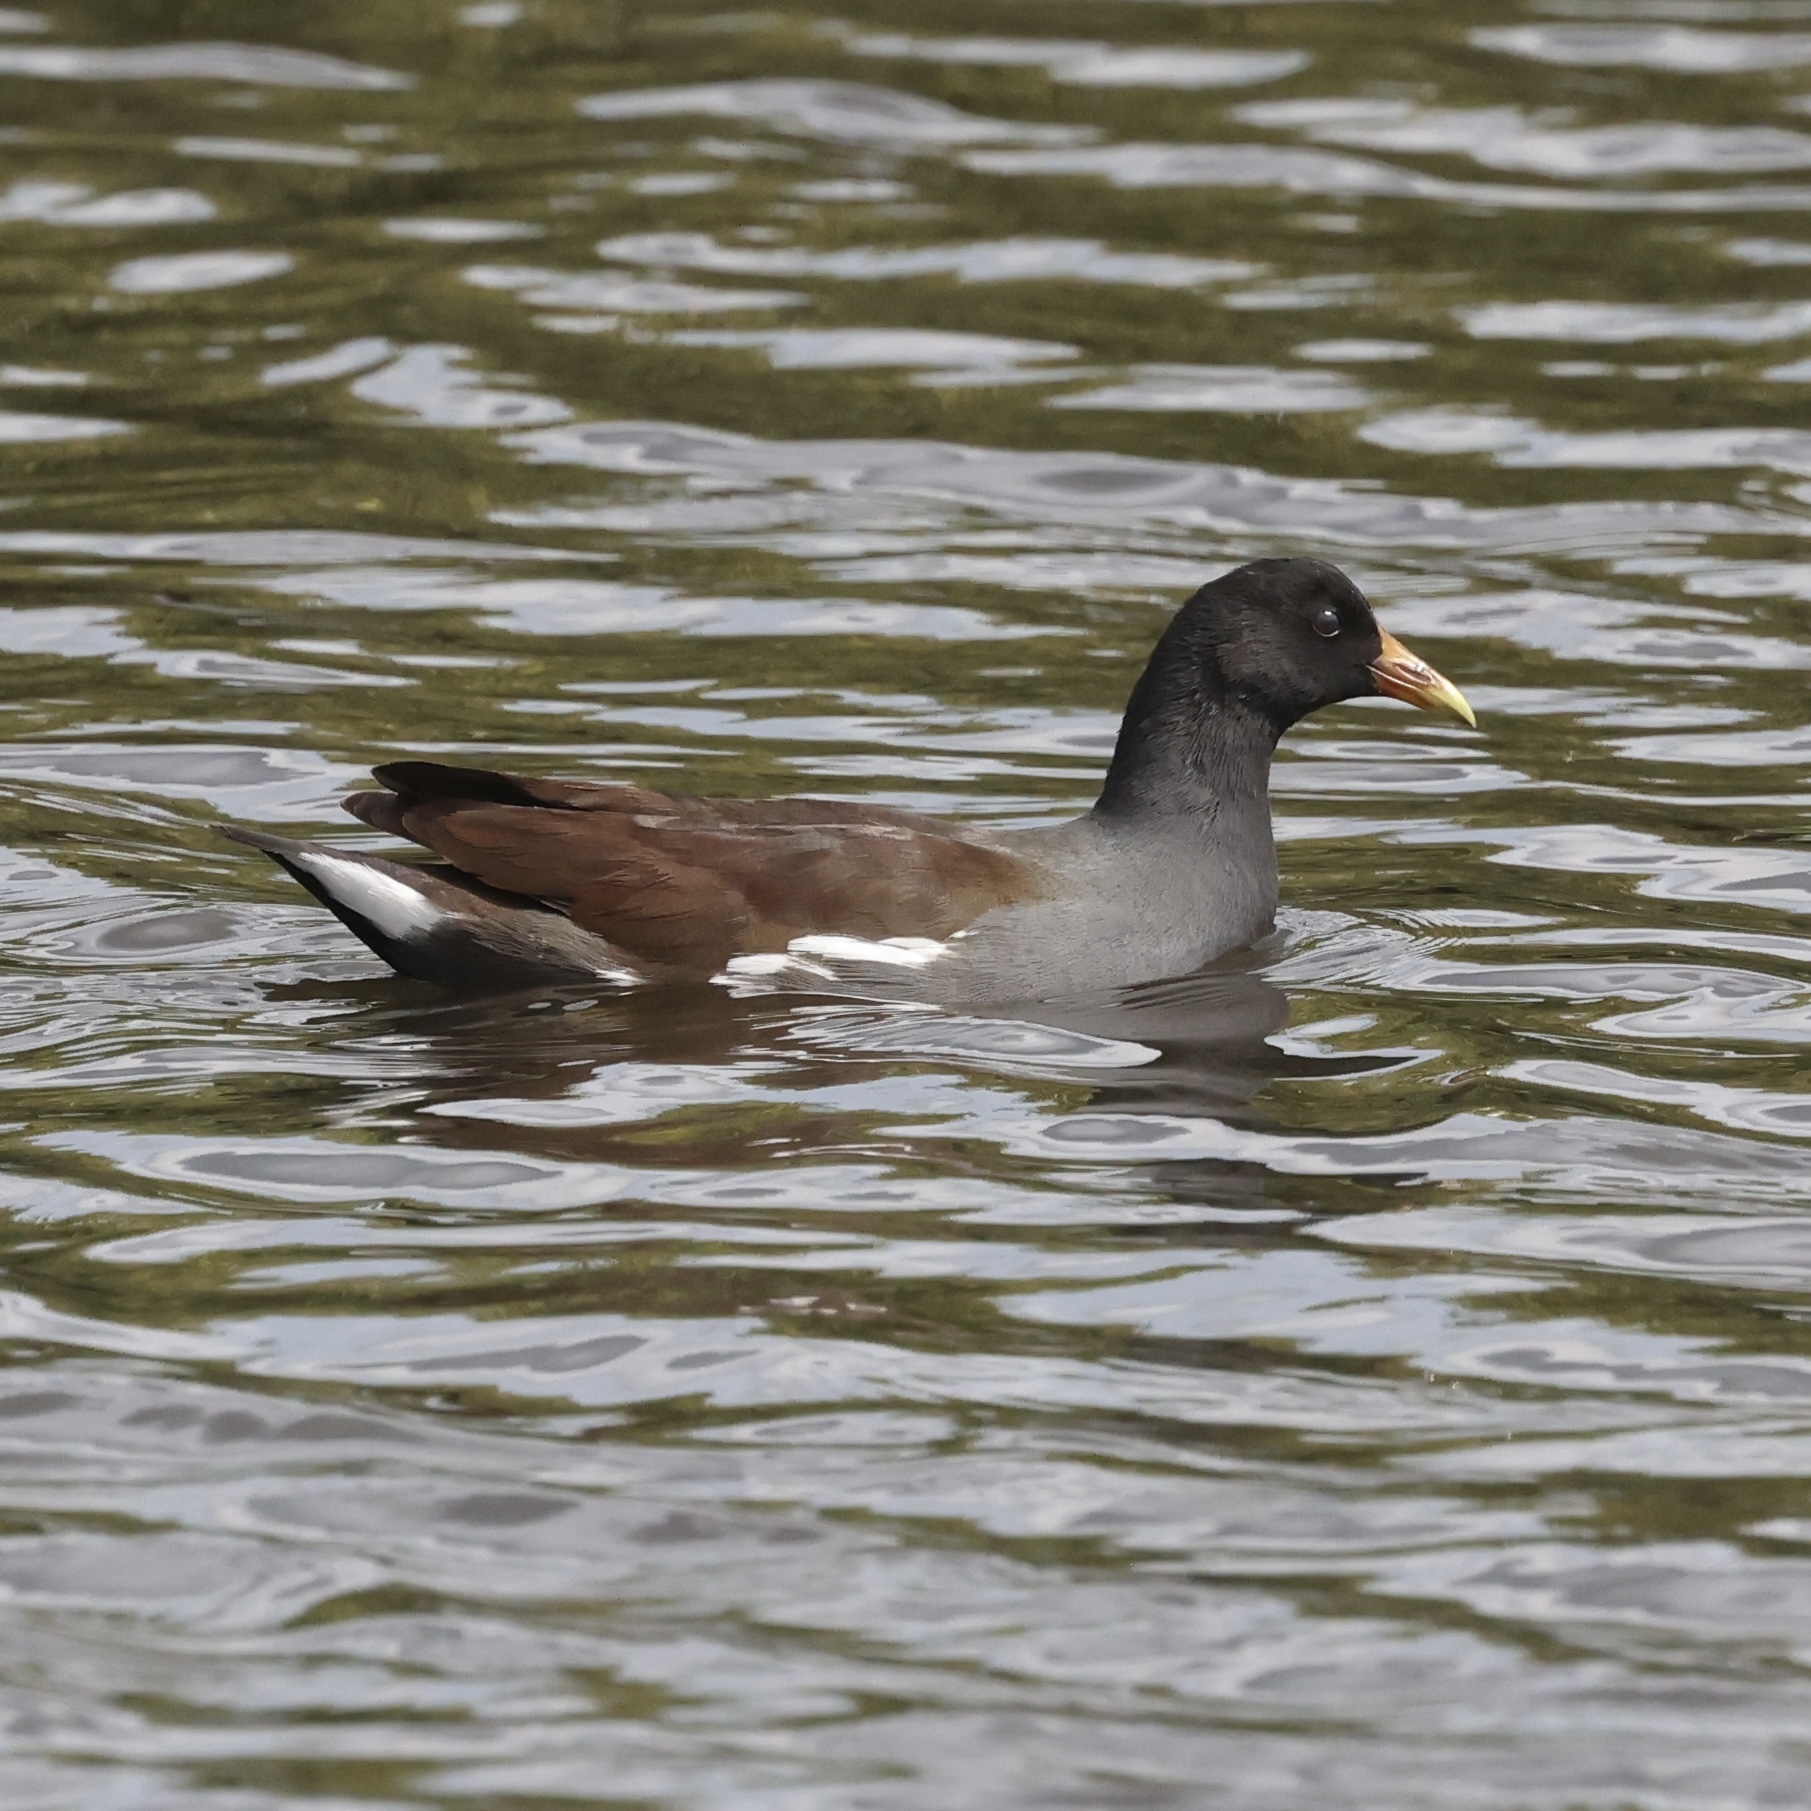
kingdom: Animalia
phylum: Chordata
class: Aves
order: Gruiformes
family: Rallidae
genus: Gallinula
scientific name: Gallinula chloropus
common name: Common moorhen
